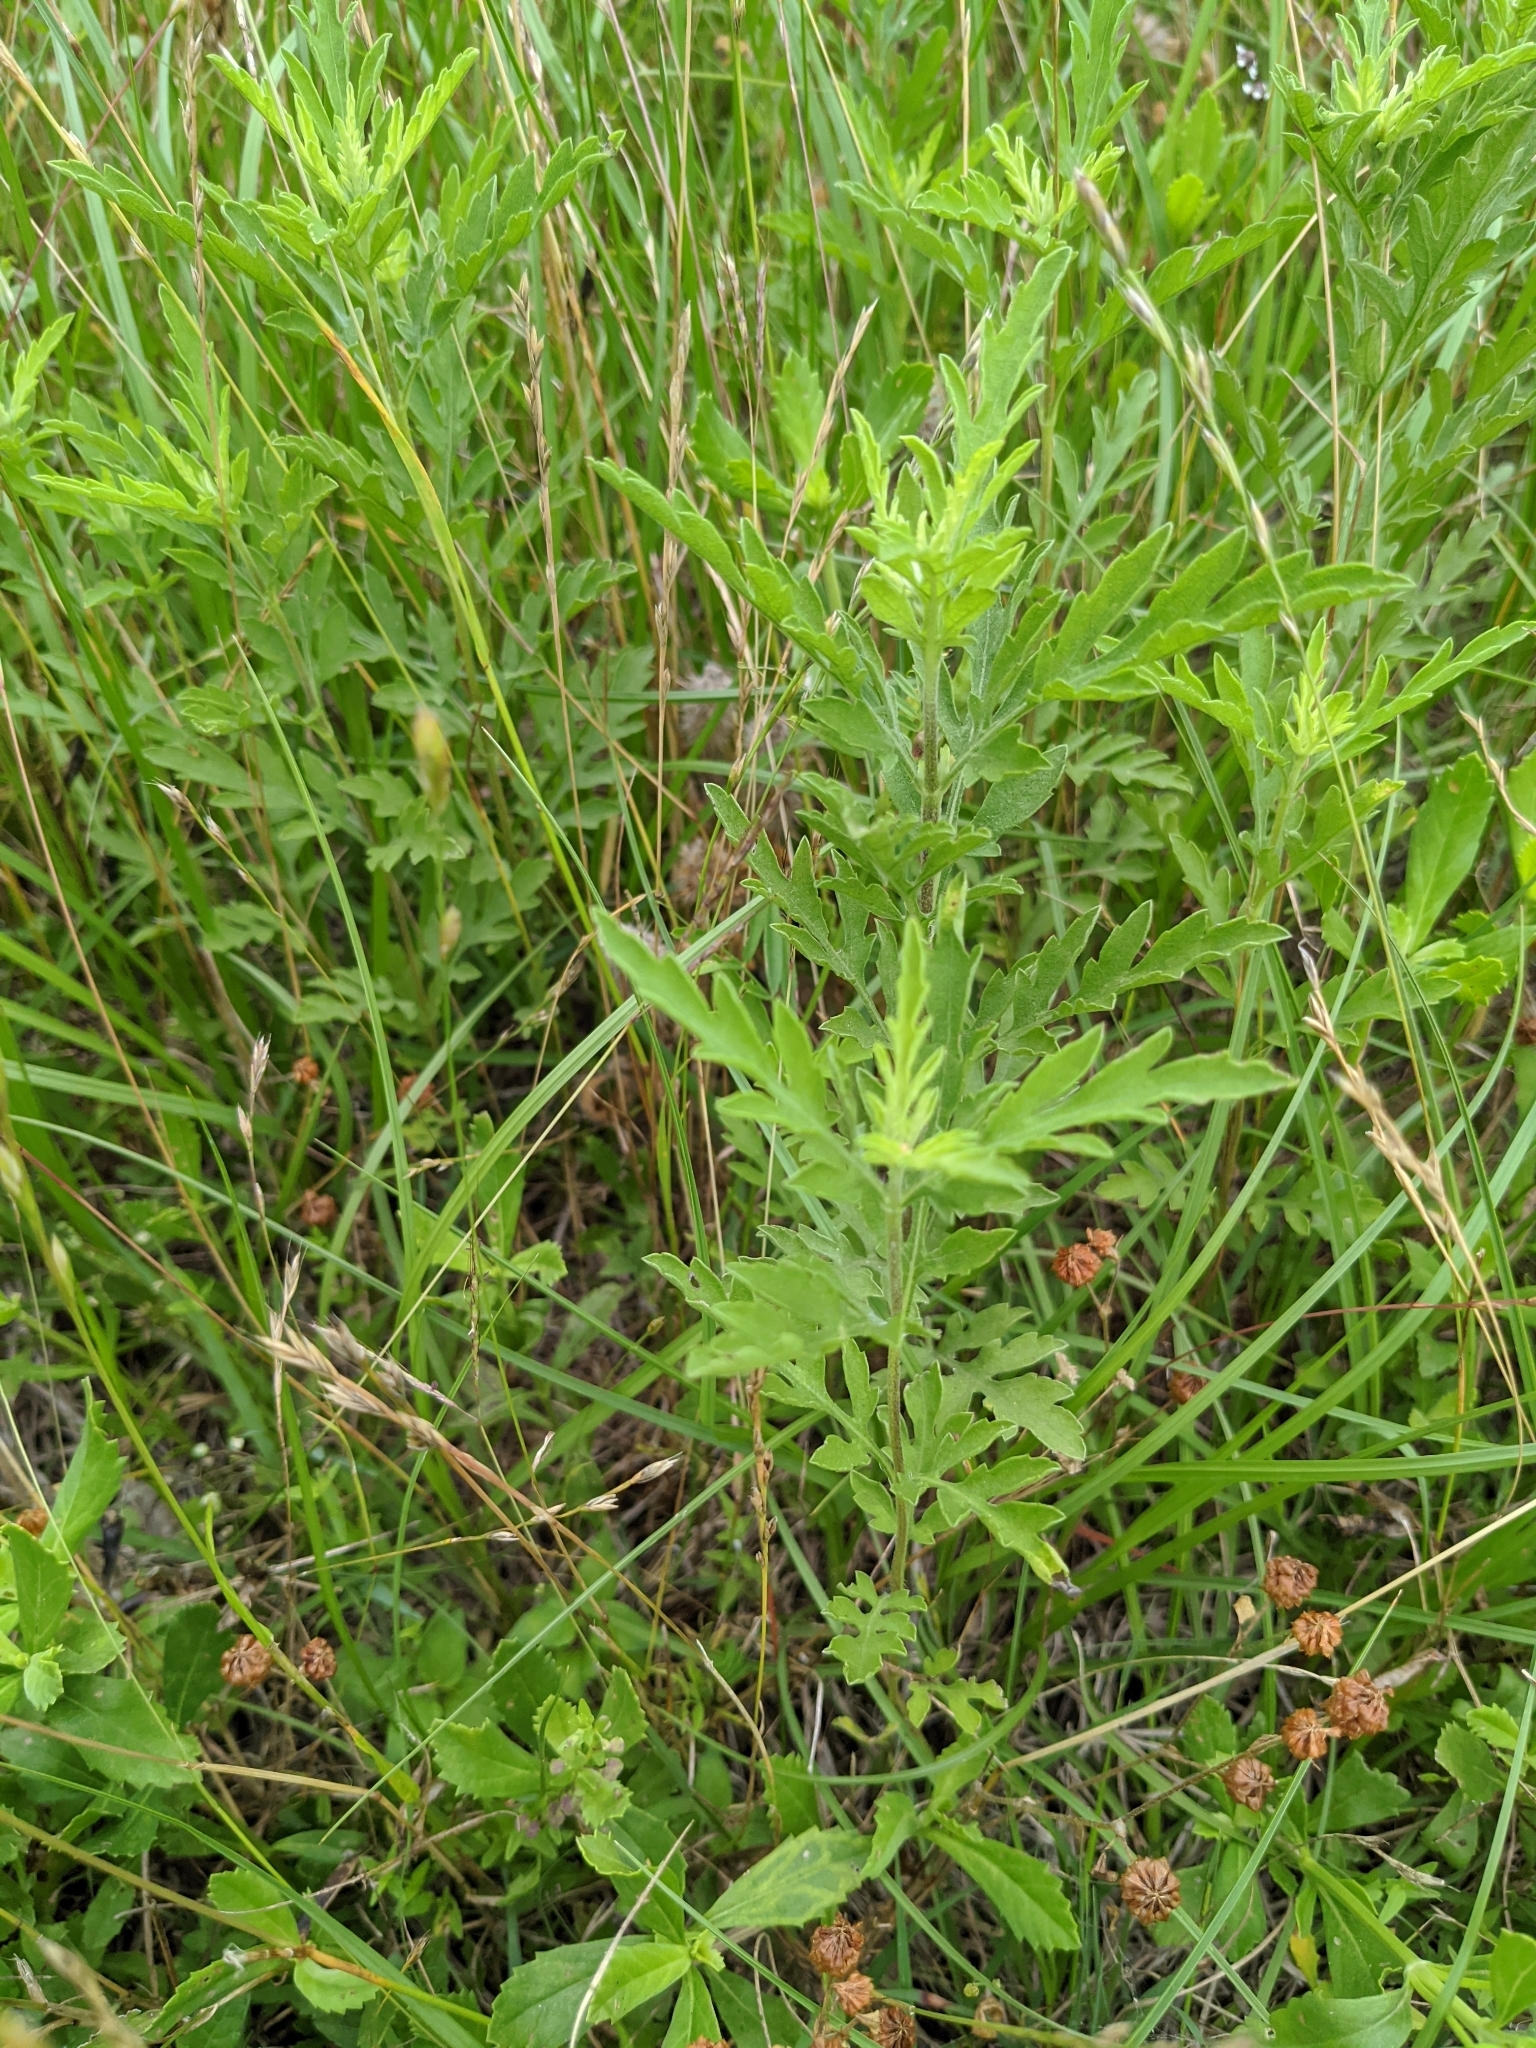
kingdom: Plantae
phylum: Tracheophyta
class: Magnoliopsida
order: Asterales
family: Asteraceae
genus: Ambrosia
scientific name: Ambrosia psilostachya
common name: Perennial ragweed
